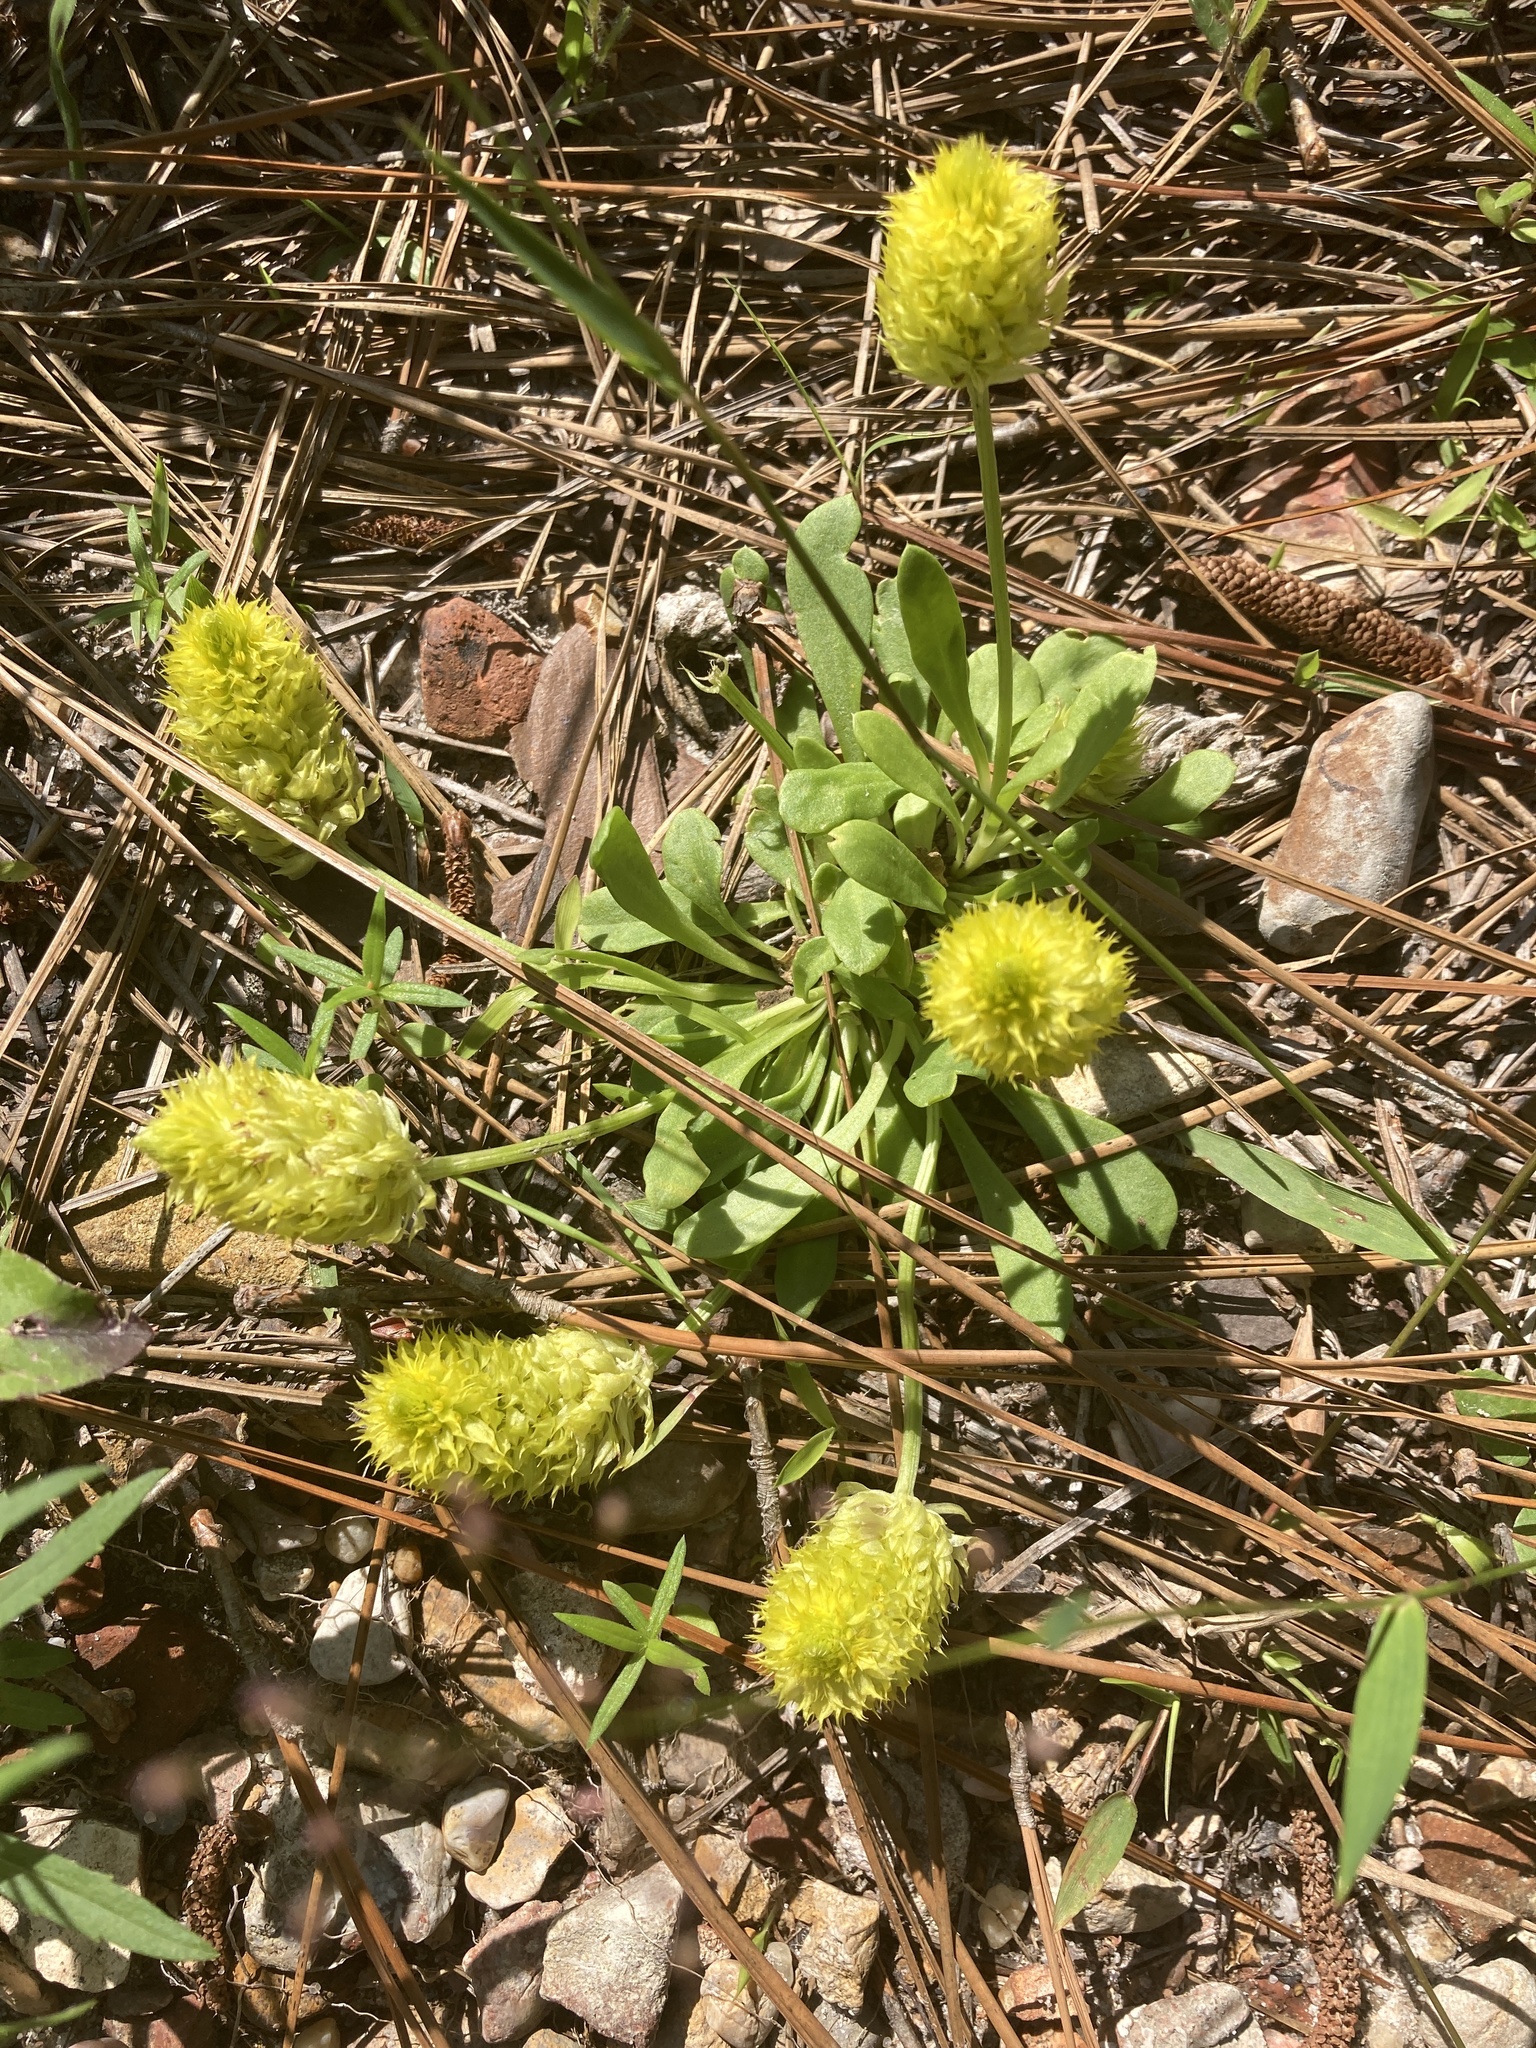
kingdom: Plantae
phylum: Tracheophyta
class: Magnoliopsida
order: Fabales
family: Polygalaceae
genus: Polygala
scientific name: Polygala nana
